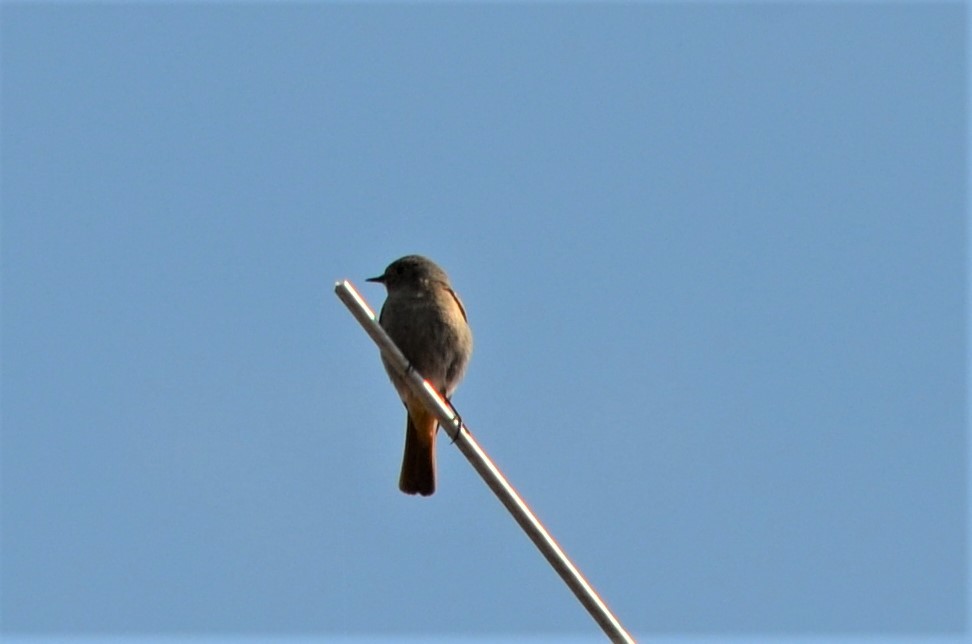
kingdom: Animalia
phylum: Chordata
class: Aves
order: Passeriformes
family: Muscicapidae
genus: Phoenicurus
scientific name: Phoenicurus ochruros
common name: Black redstart
